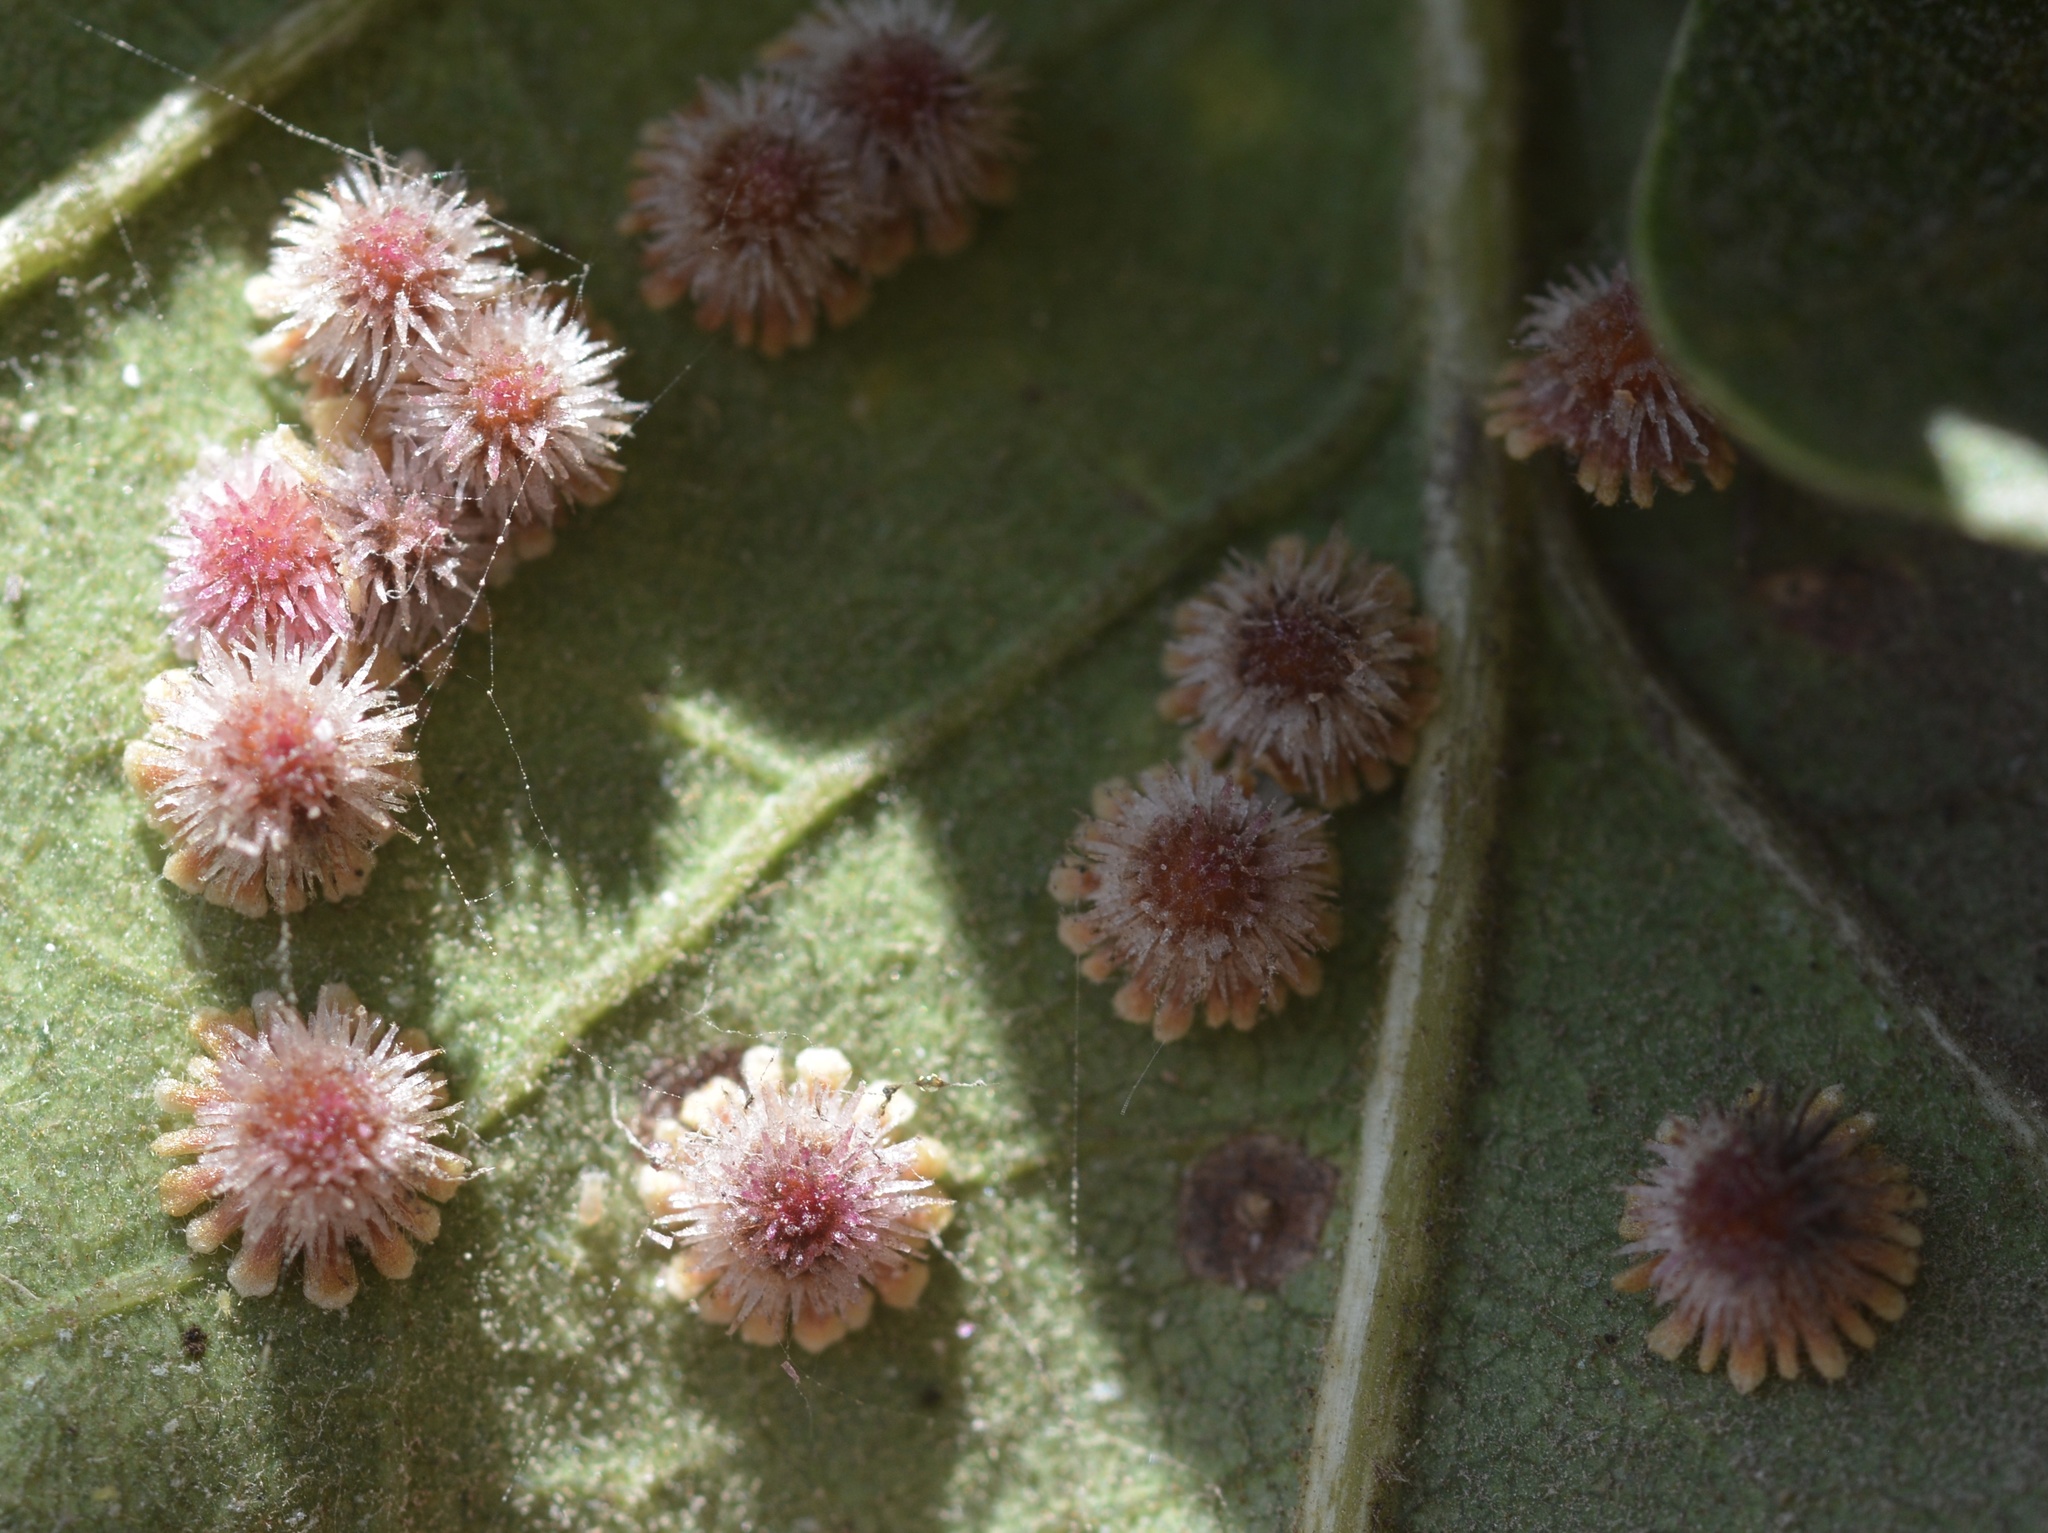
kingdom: Animalia
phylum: Arthropoda
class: Insecta
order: Hymenoptera
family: Cynipidae
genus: Andricus
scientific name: Andricus
